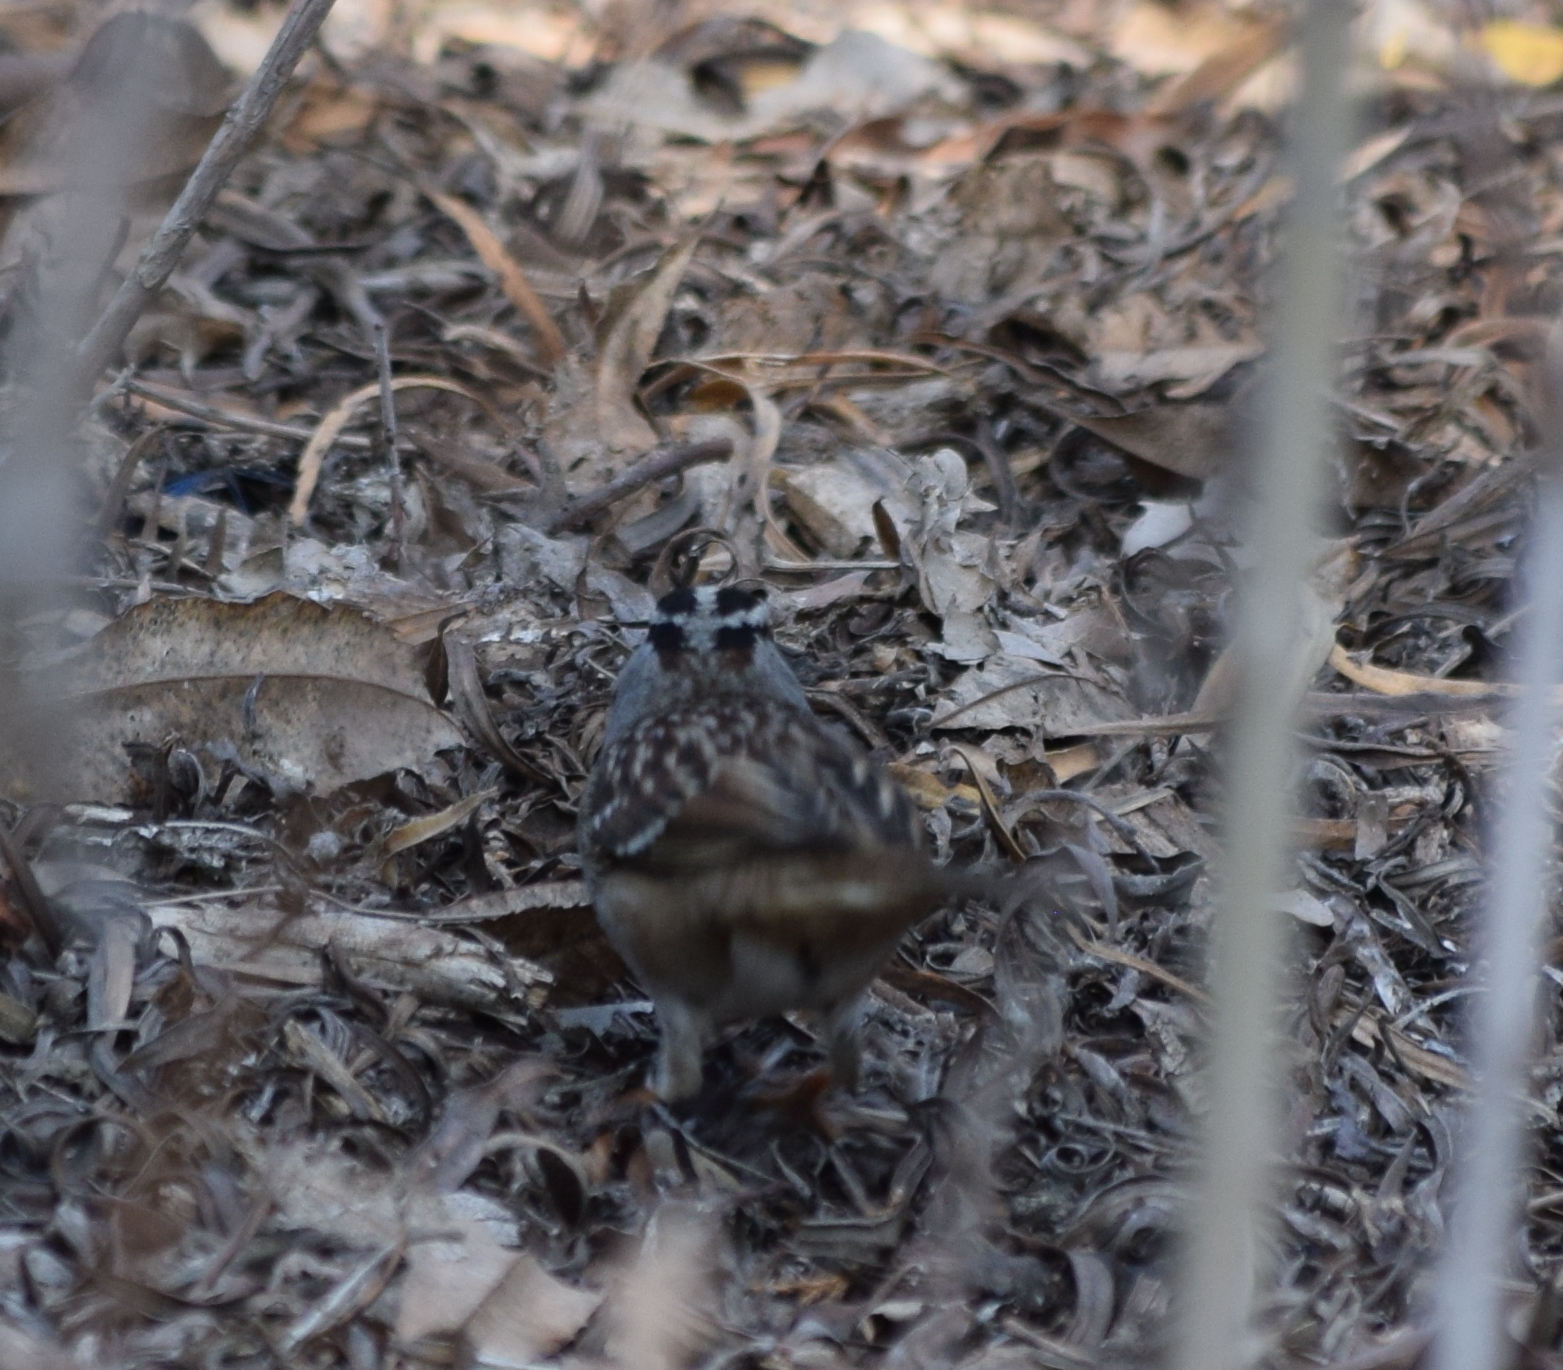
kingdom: Animalia
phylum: Chordata
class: Aves
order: Passeriformes
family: Passerellidae
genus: Zonotrichia
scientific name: Zonotrichia leucophrys
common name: White-crowned sparrow
